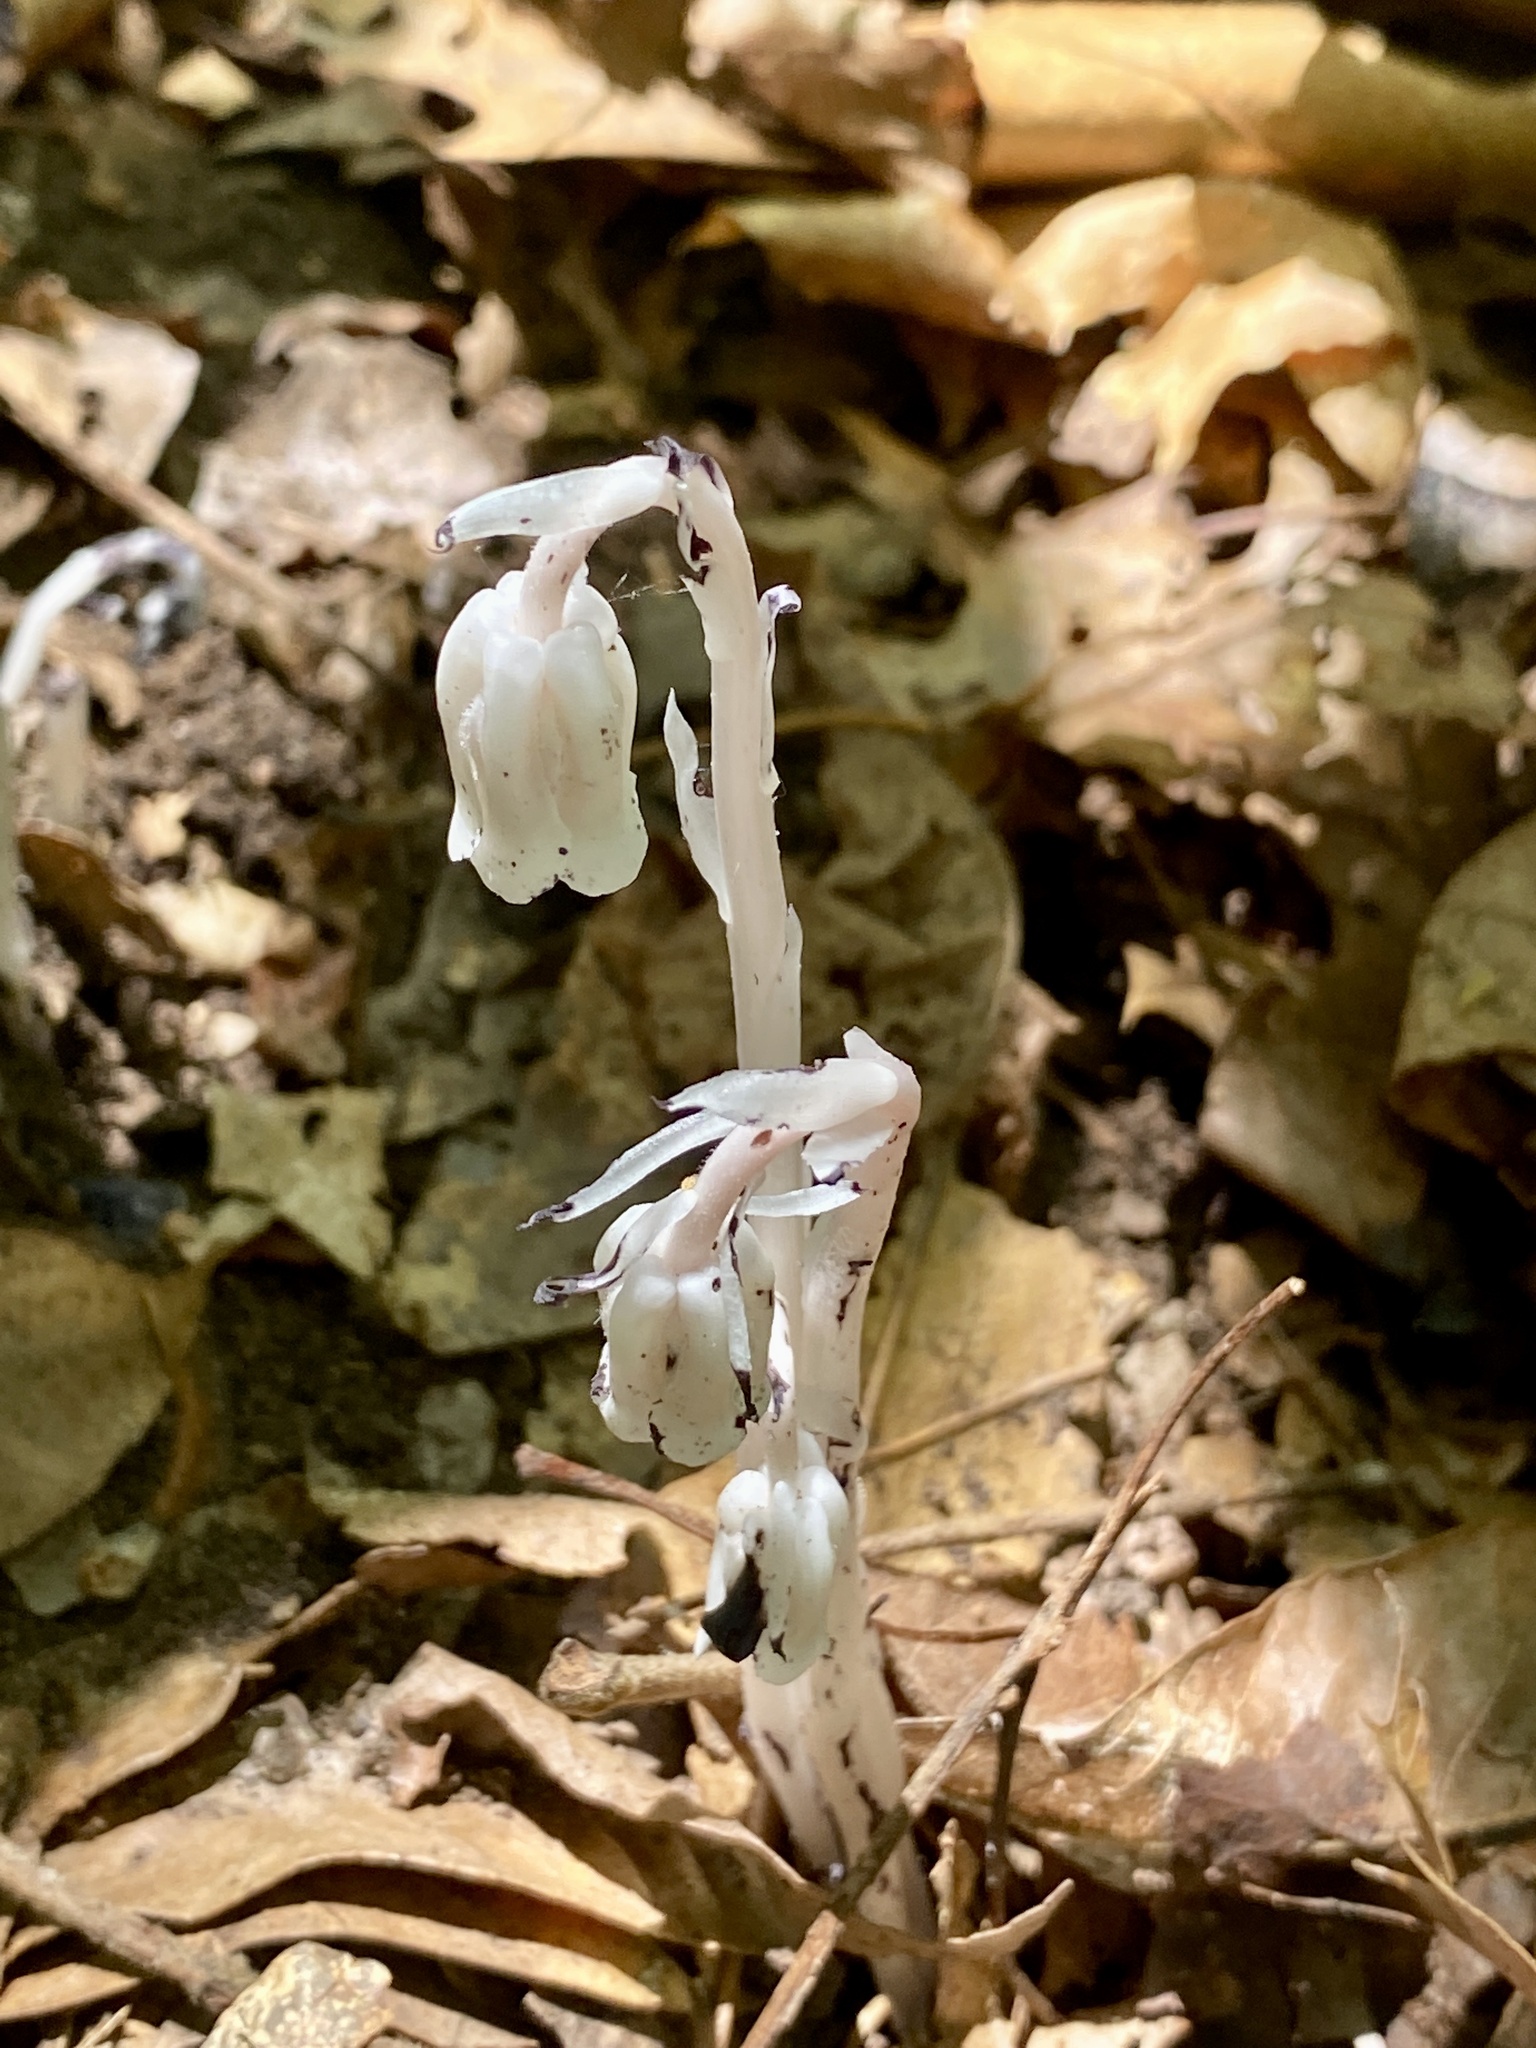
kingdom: Plantae
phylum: Tracheophyta
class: Magnoliopsida
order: Ericales
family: Ericaceae
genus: Monotropa
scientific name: Monotropa uniflora
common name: Convulsion root
